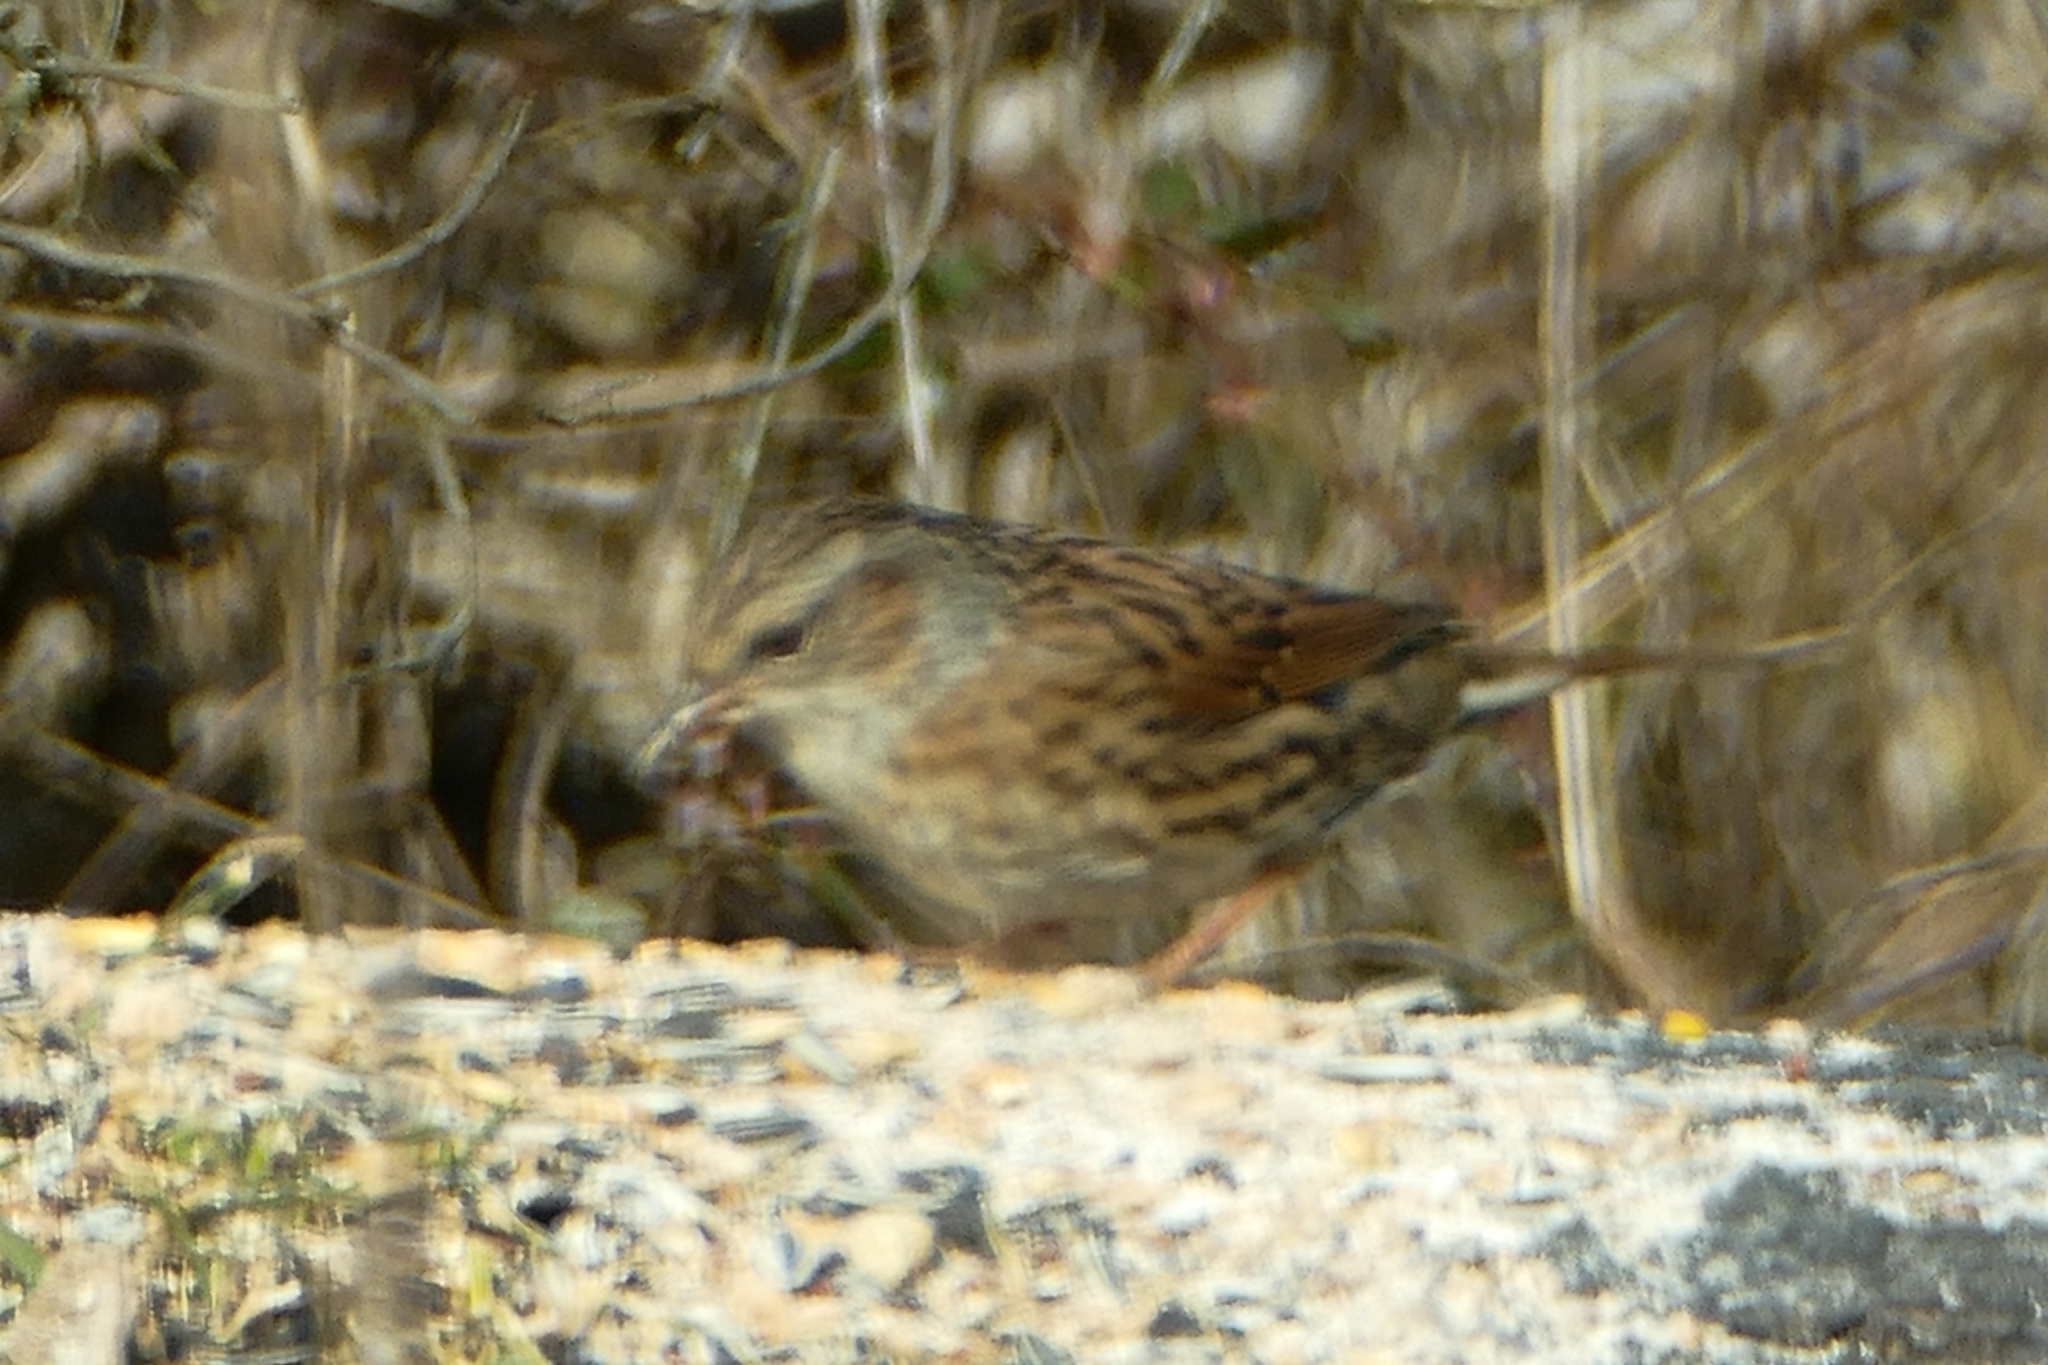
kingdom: Animalia
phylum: Chordata
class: Aves
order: Passeriformes
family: Prunellidae
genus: Prunella
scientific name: Prunella modularis
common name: Dunnock
